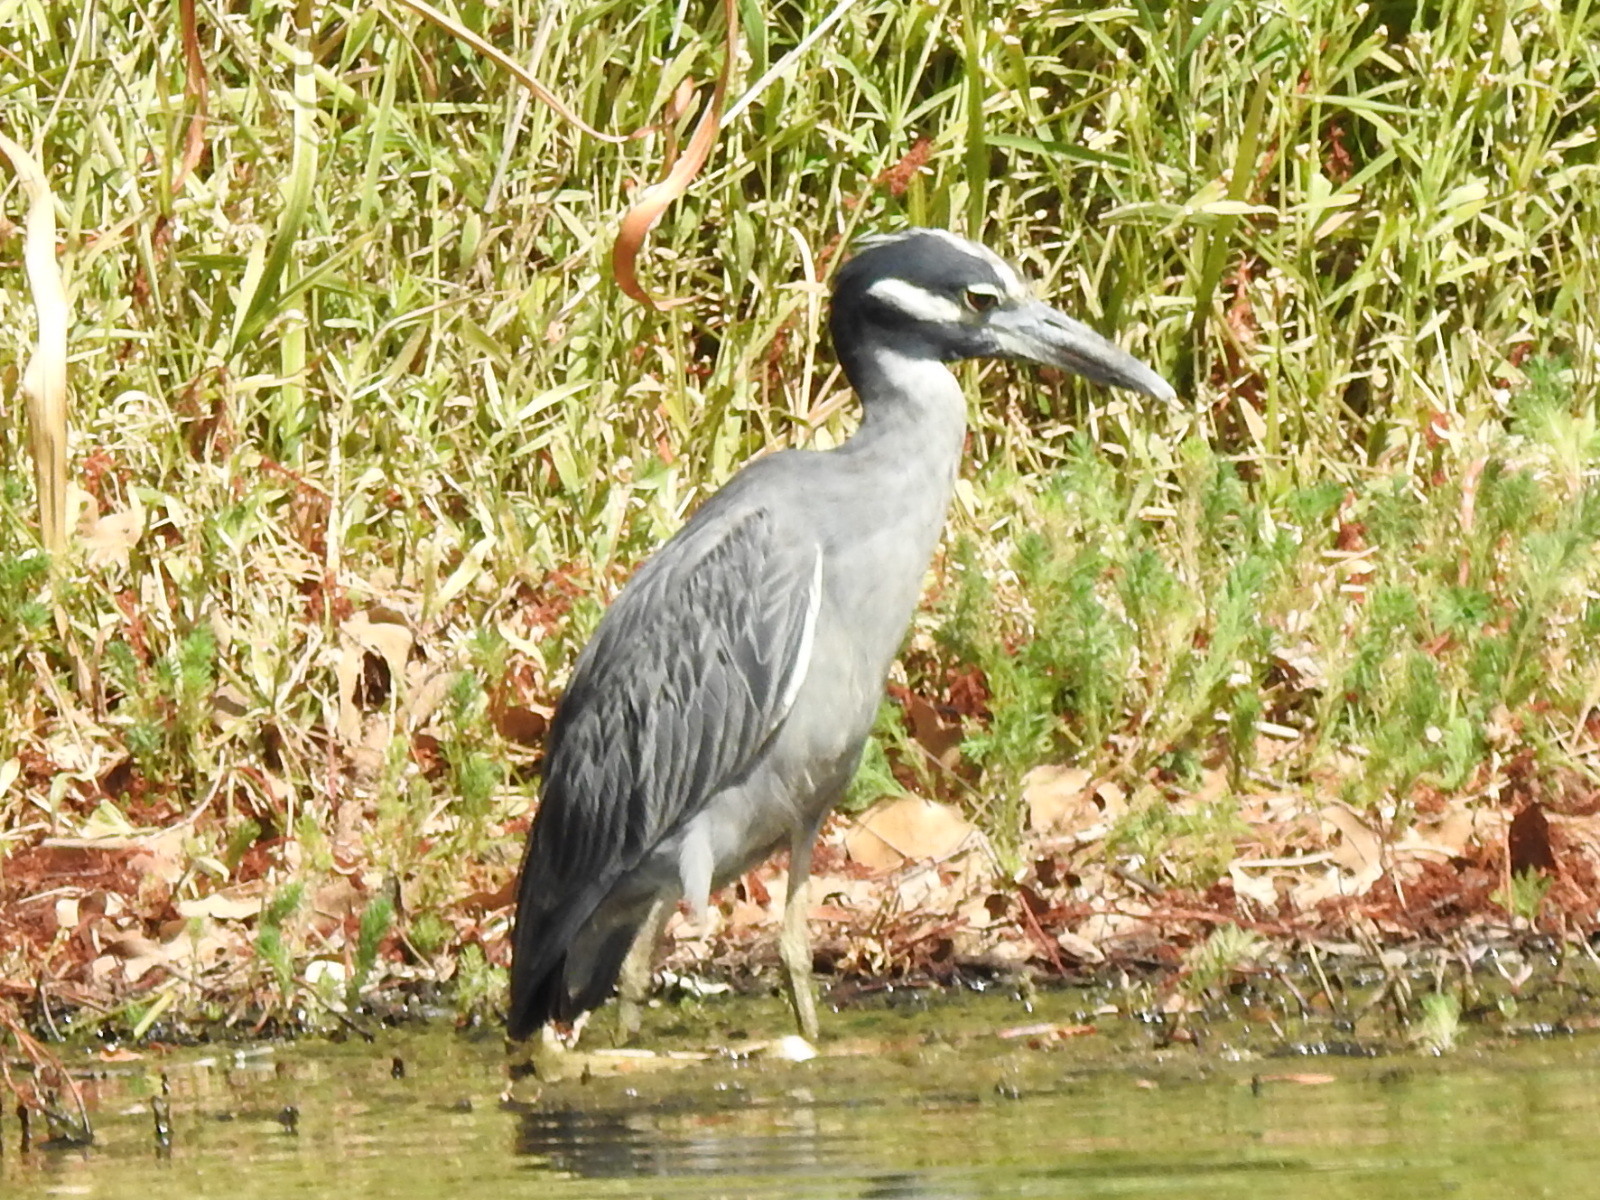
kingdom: Animalia
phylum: Chordata
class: Aves
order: Pelecaniformes
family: Ardeidae
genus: Nyctanassa
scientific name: Nyctanassa violacea
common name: Yellow-crowned night heron
